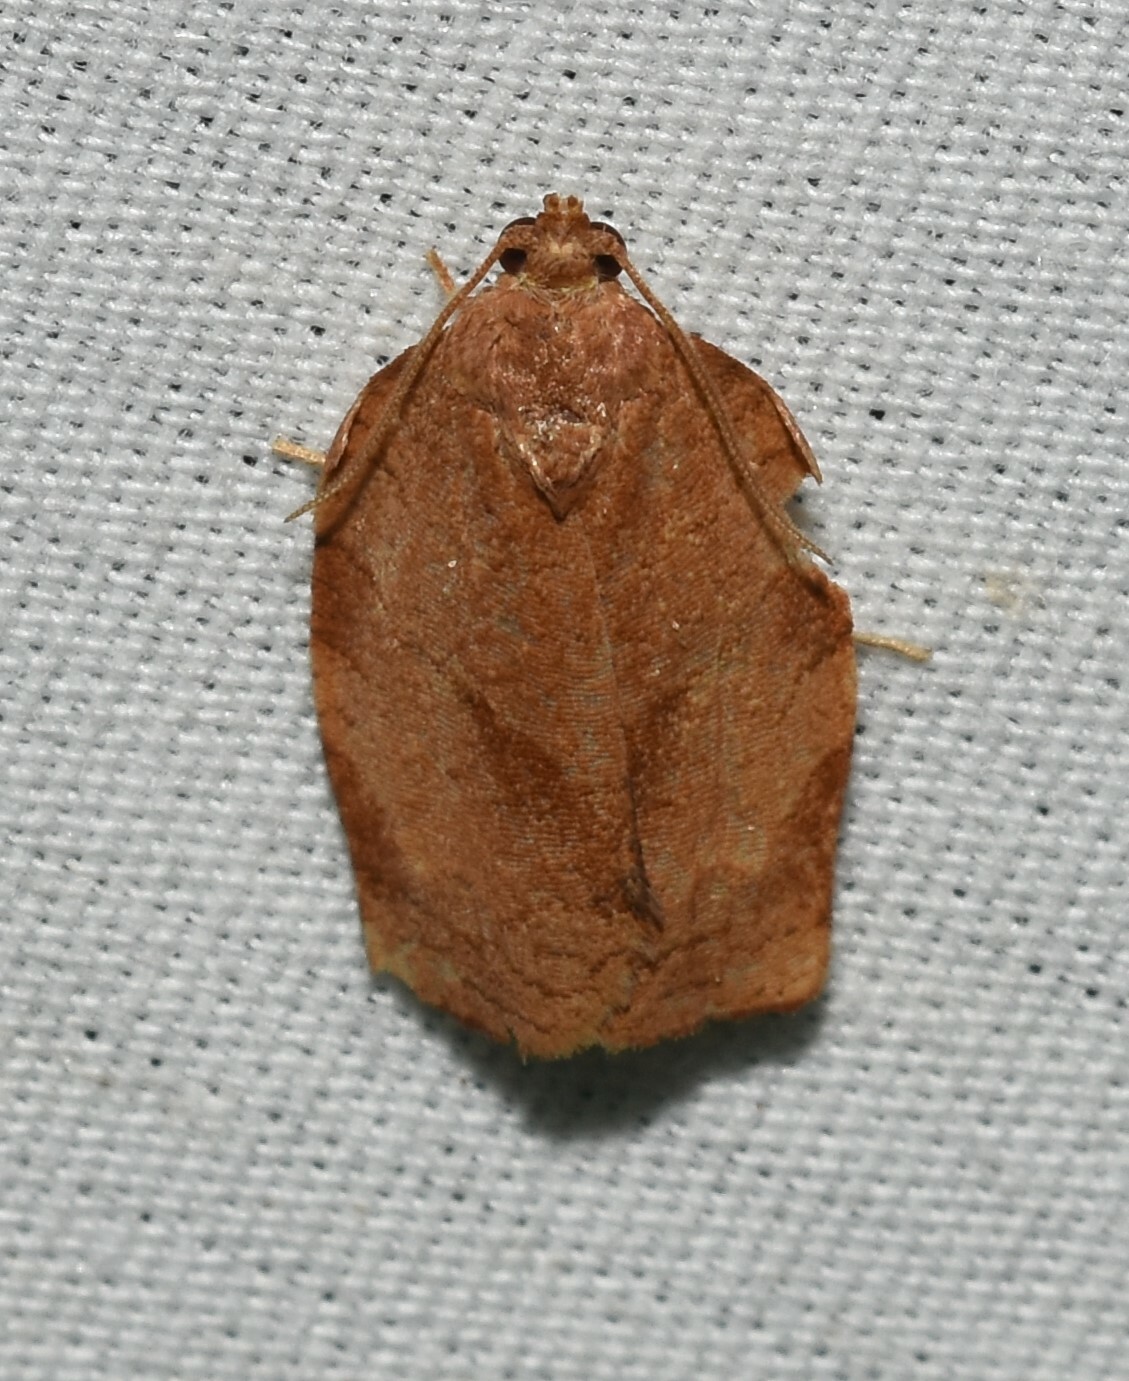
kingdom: Animalia
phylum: Arthropoda
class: Insecta
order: Lepidoptera
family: Tortricidae
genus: Choristoneura
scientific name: Choristoneura rosaceana
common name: Oblique-banded leafroller moth
